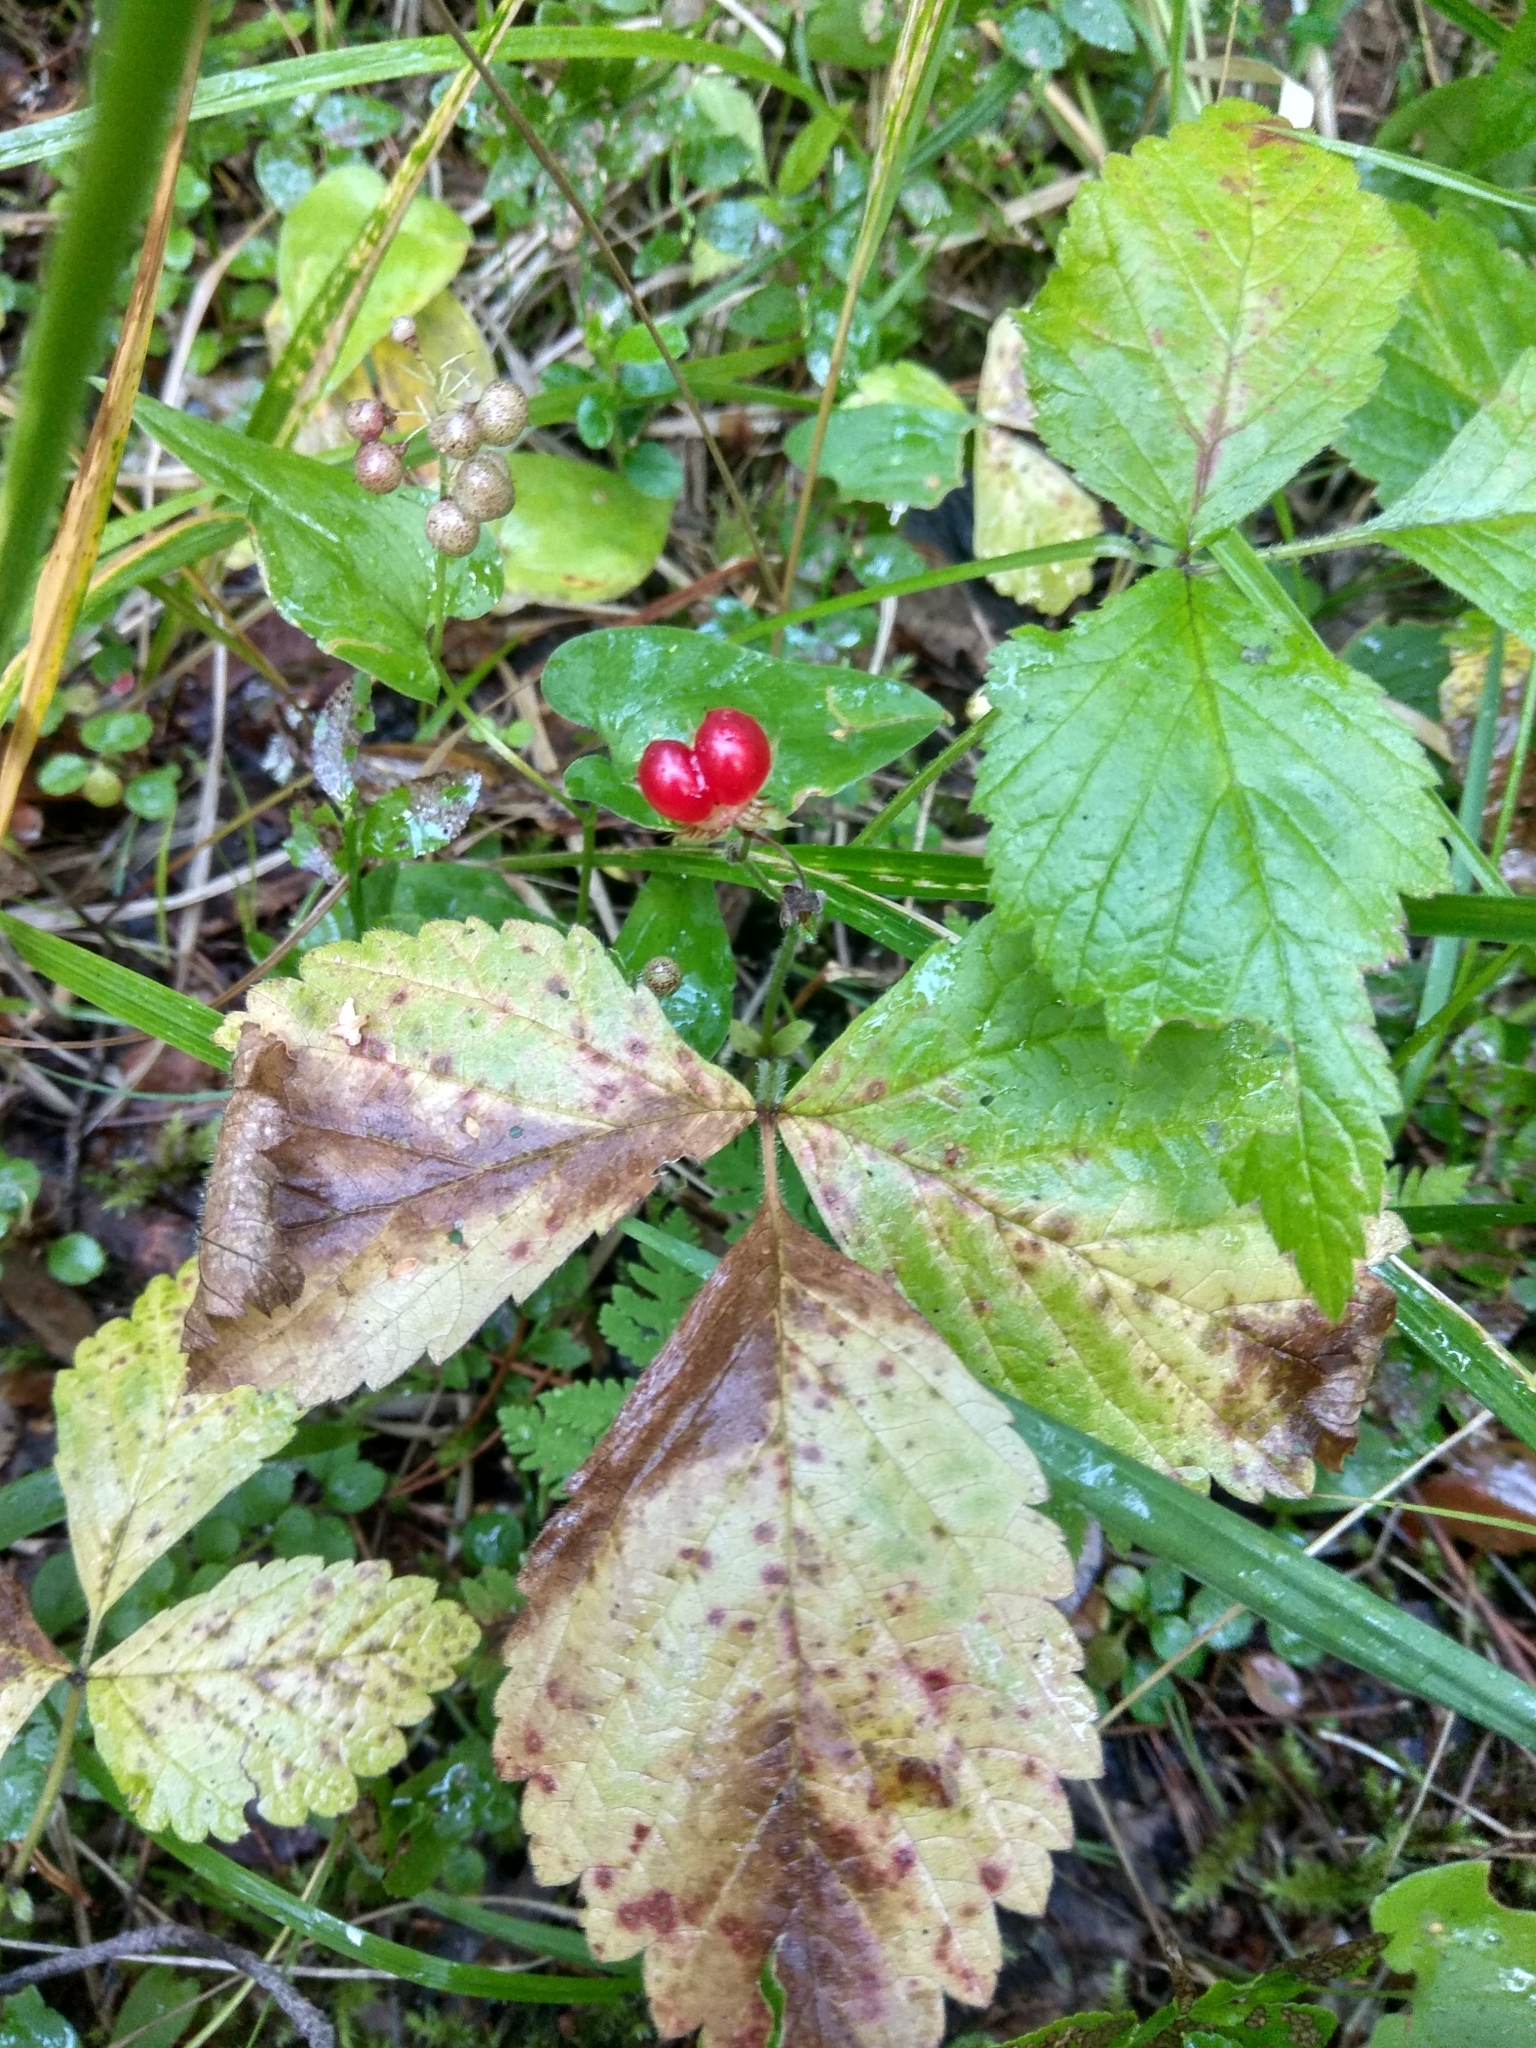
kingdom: Plantae
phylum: Tracheophyta
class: Magnoliopsida
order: Rosales
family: Rosaceae
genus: Rubus
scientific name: Rubus saxatilis
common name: Stone bramble
